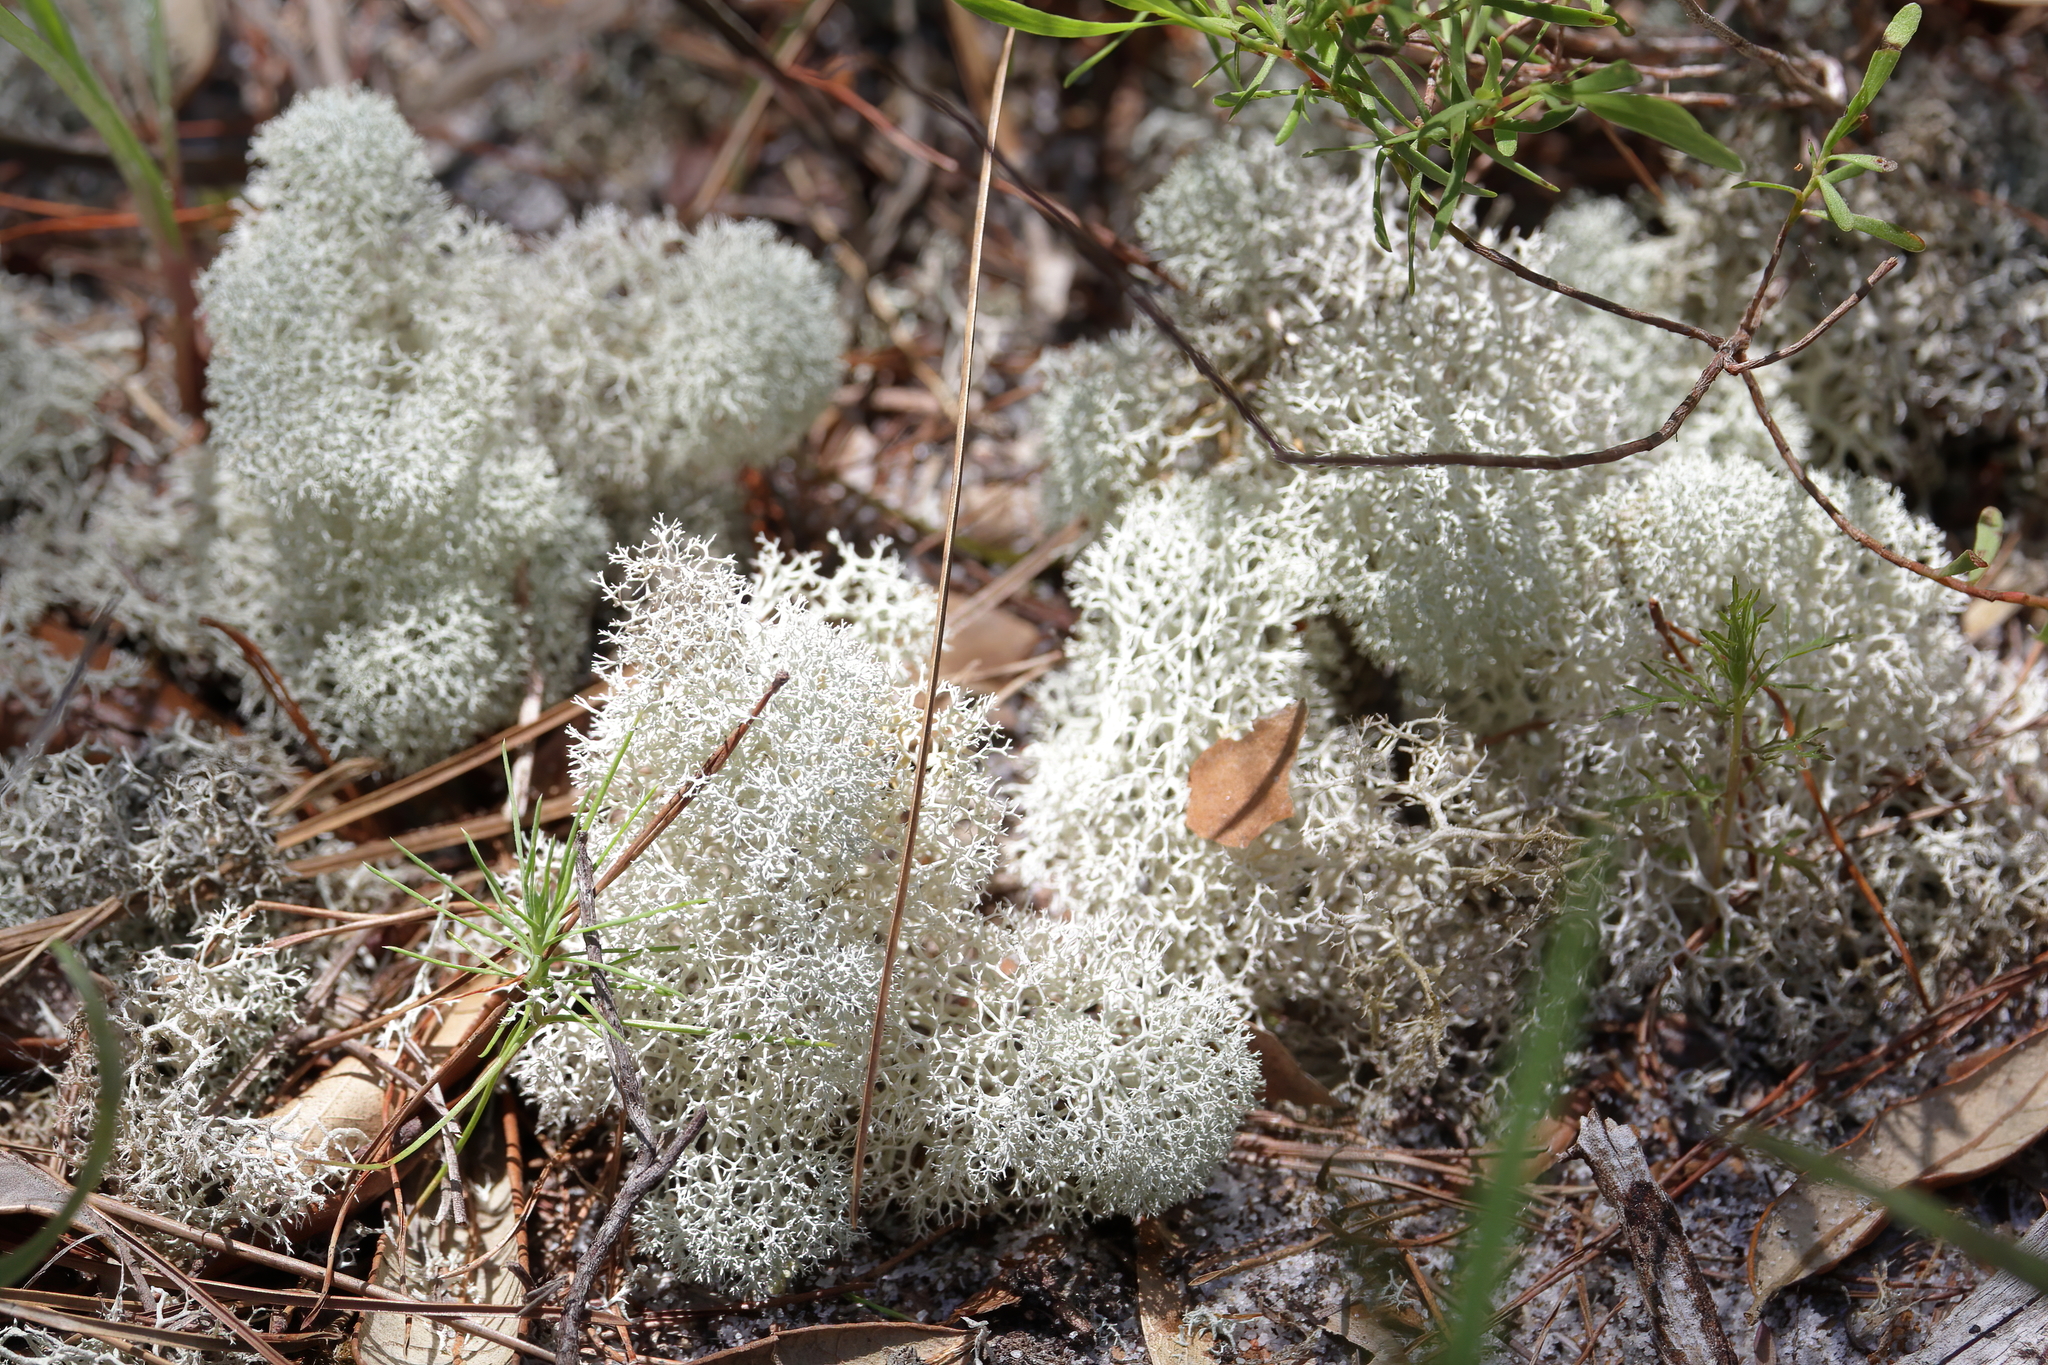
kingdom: Fungi
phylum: Ascomycota
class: Lecanoromycetes
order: Lecanorales
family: Cladoniaceae
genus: Cladonia
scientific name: Cladonia evansii
